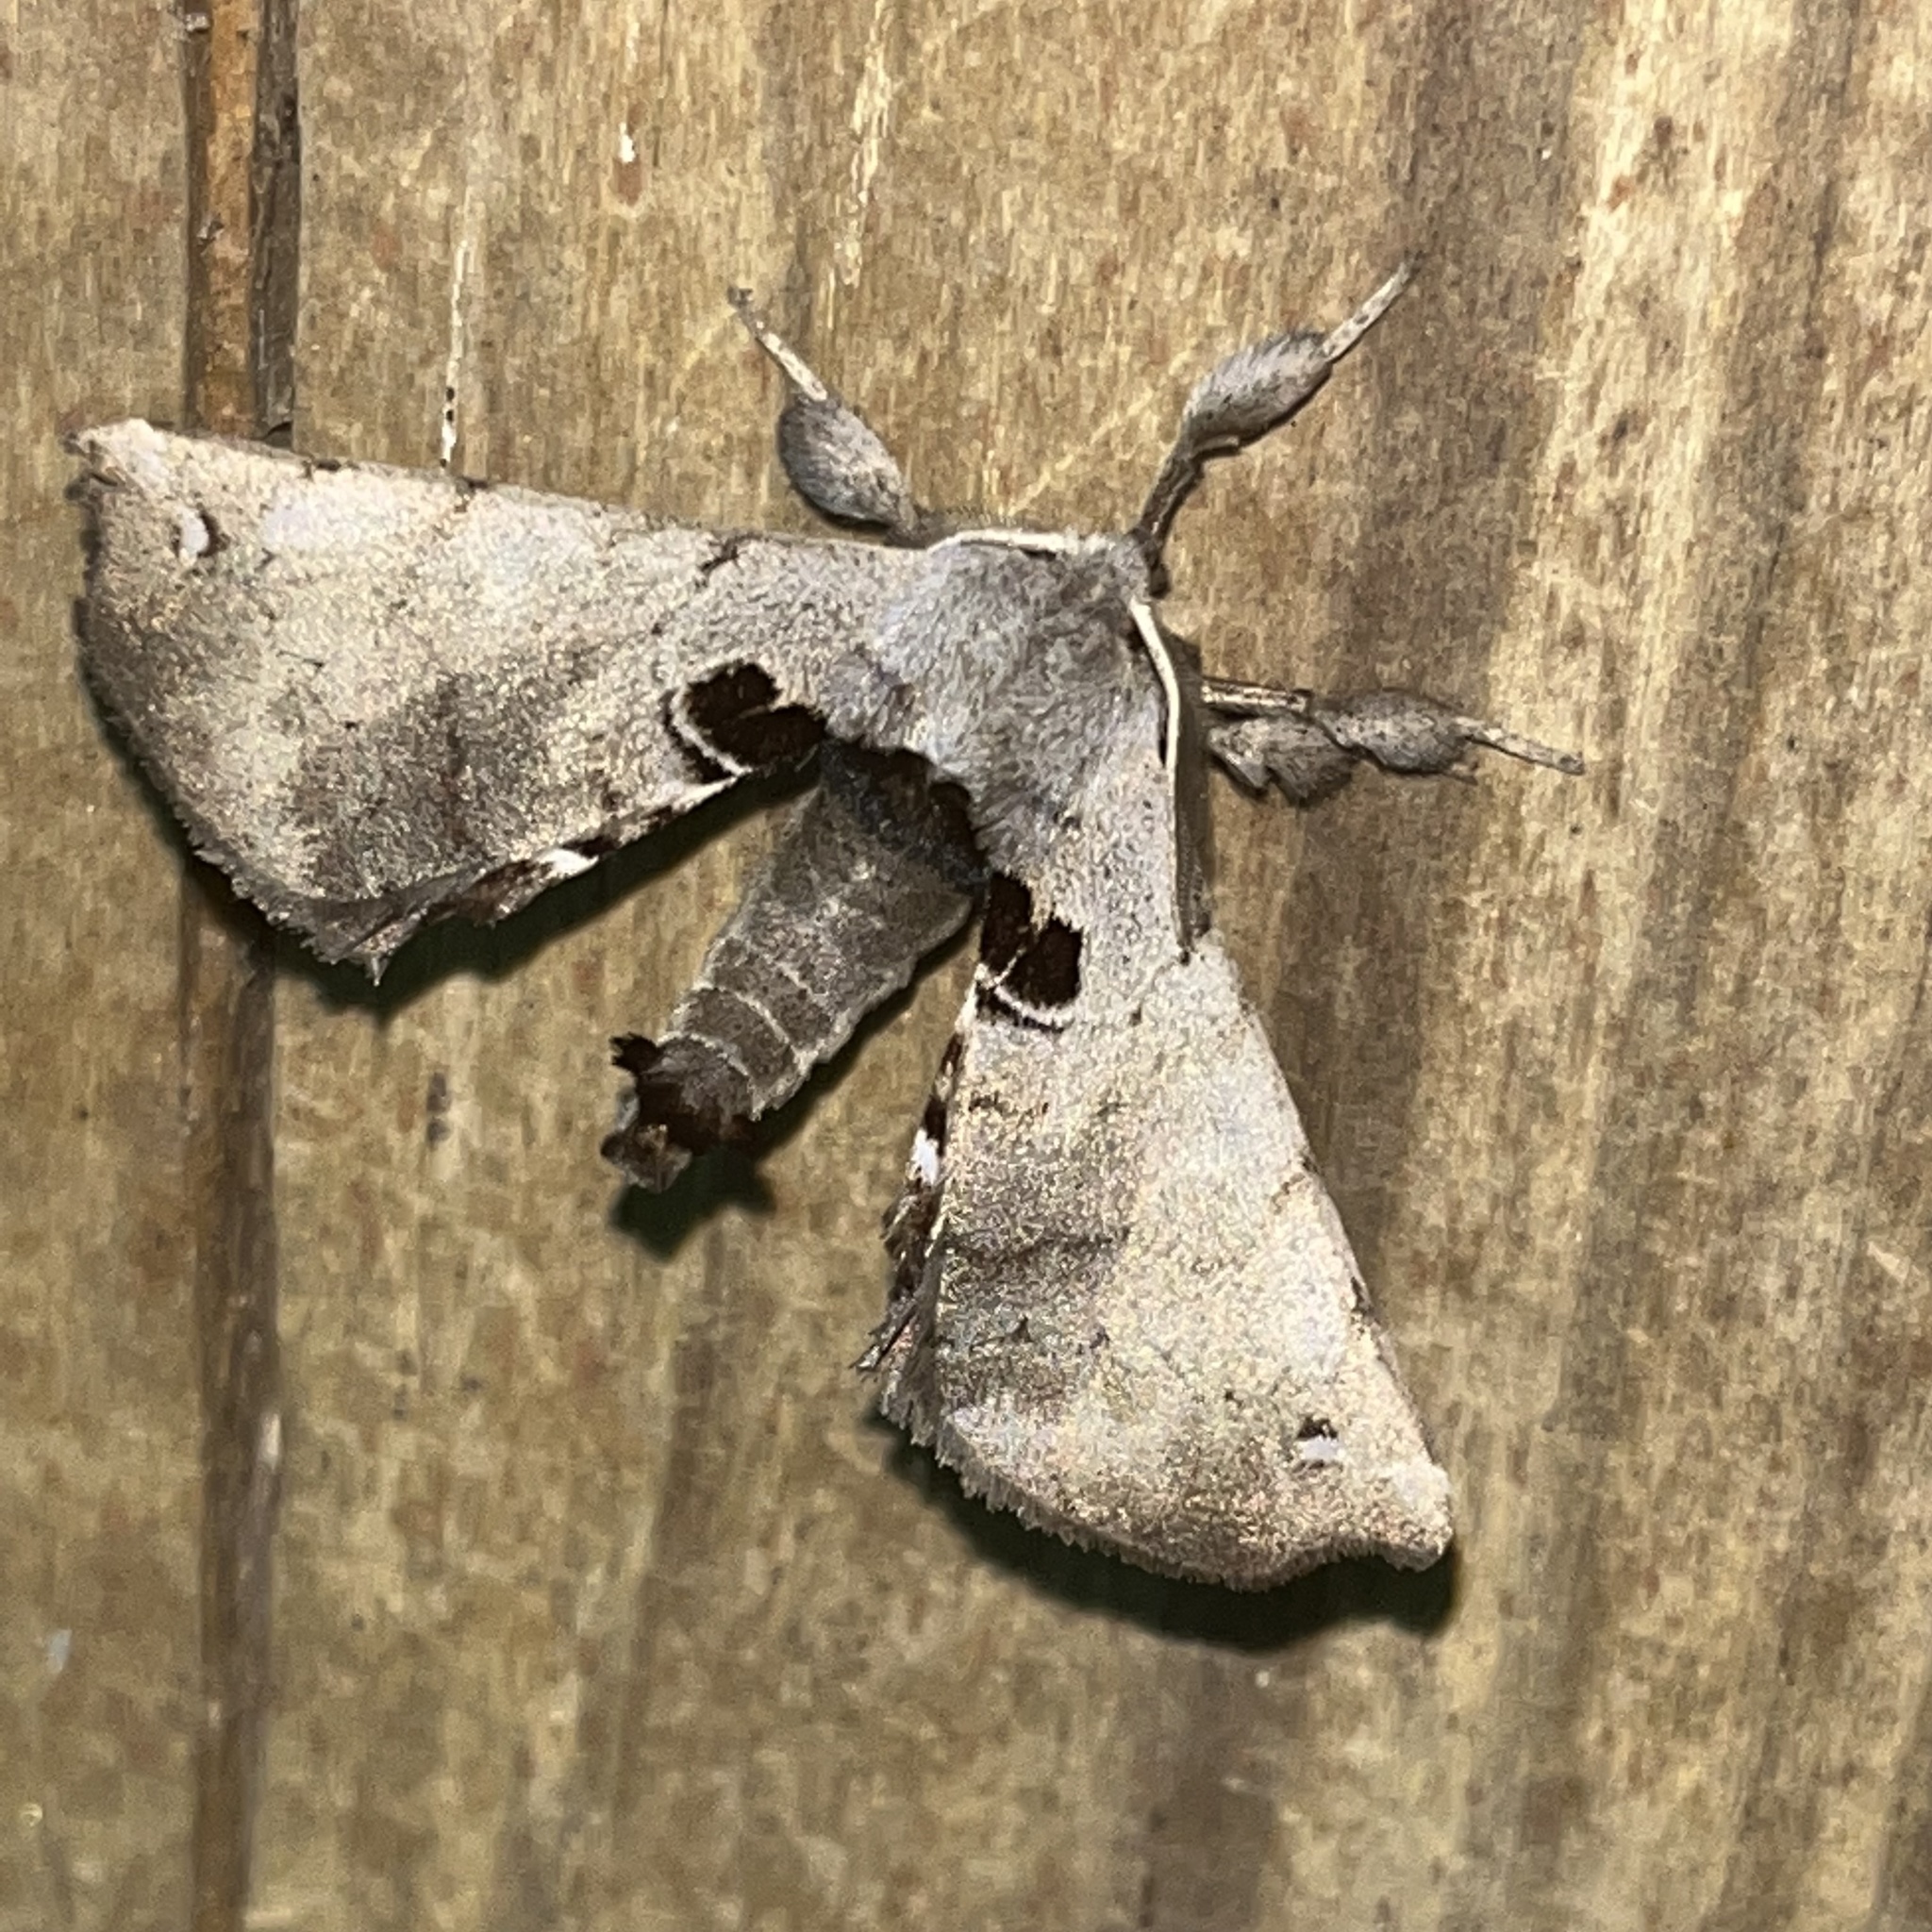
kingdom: Animalia
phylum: Arthropoda
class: Insecta
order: Lepidoptera
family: Apatelodidae
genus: Hygrochroa
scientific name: Hygrochroa Apatelodes torrefacta
